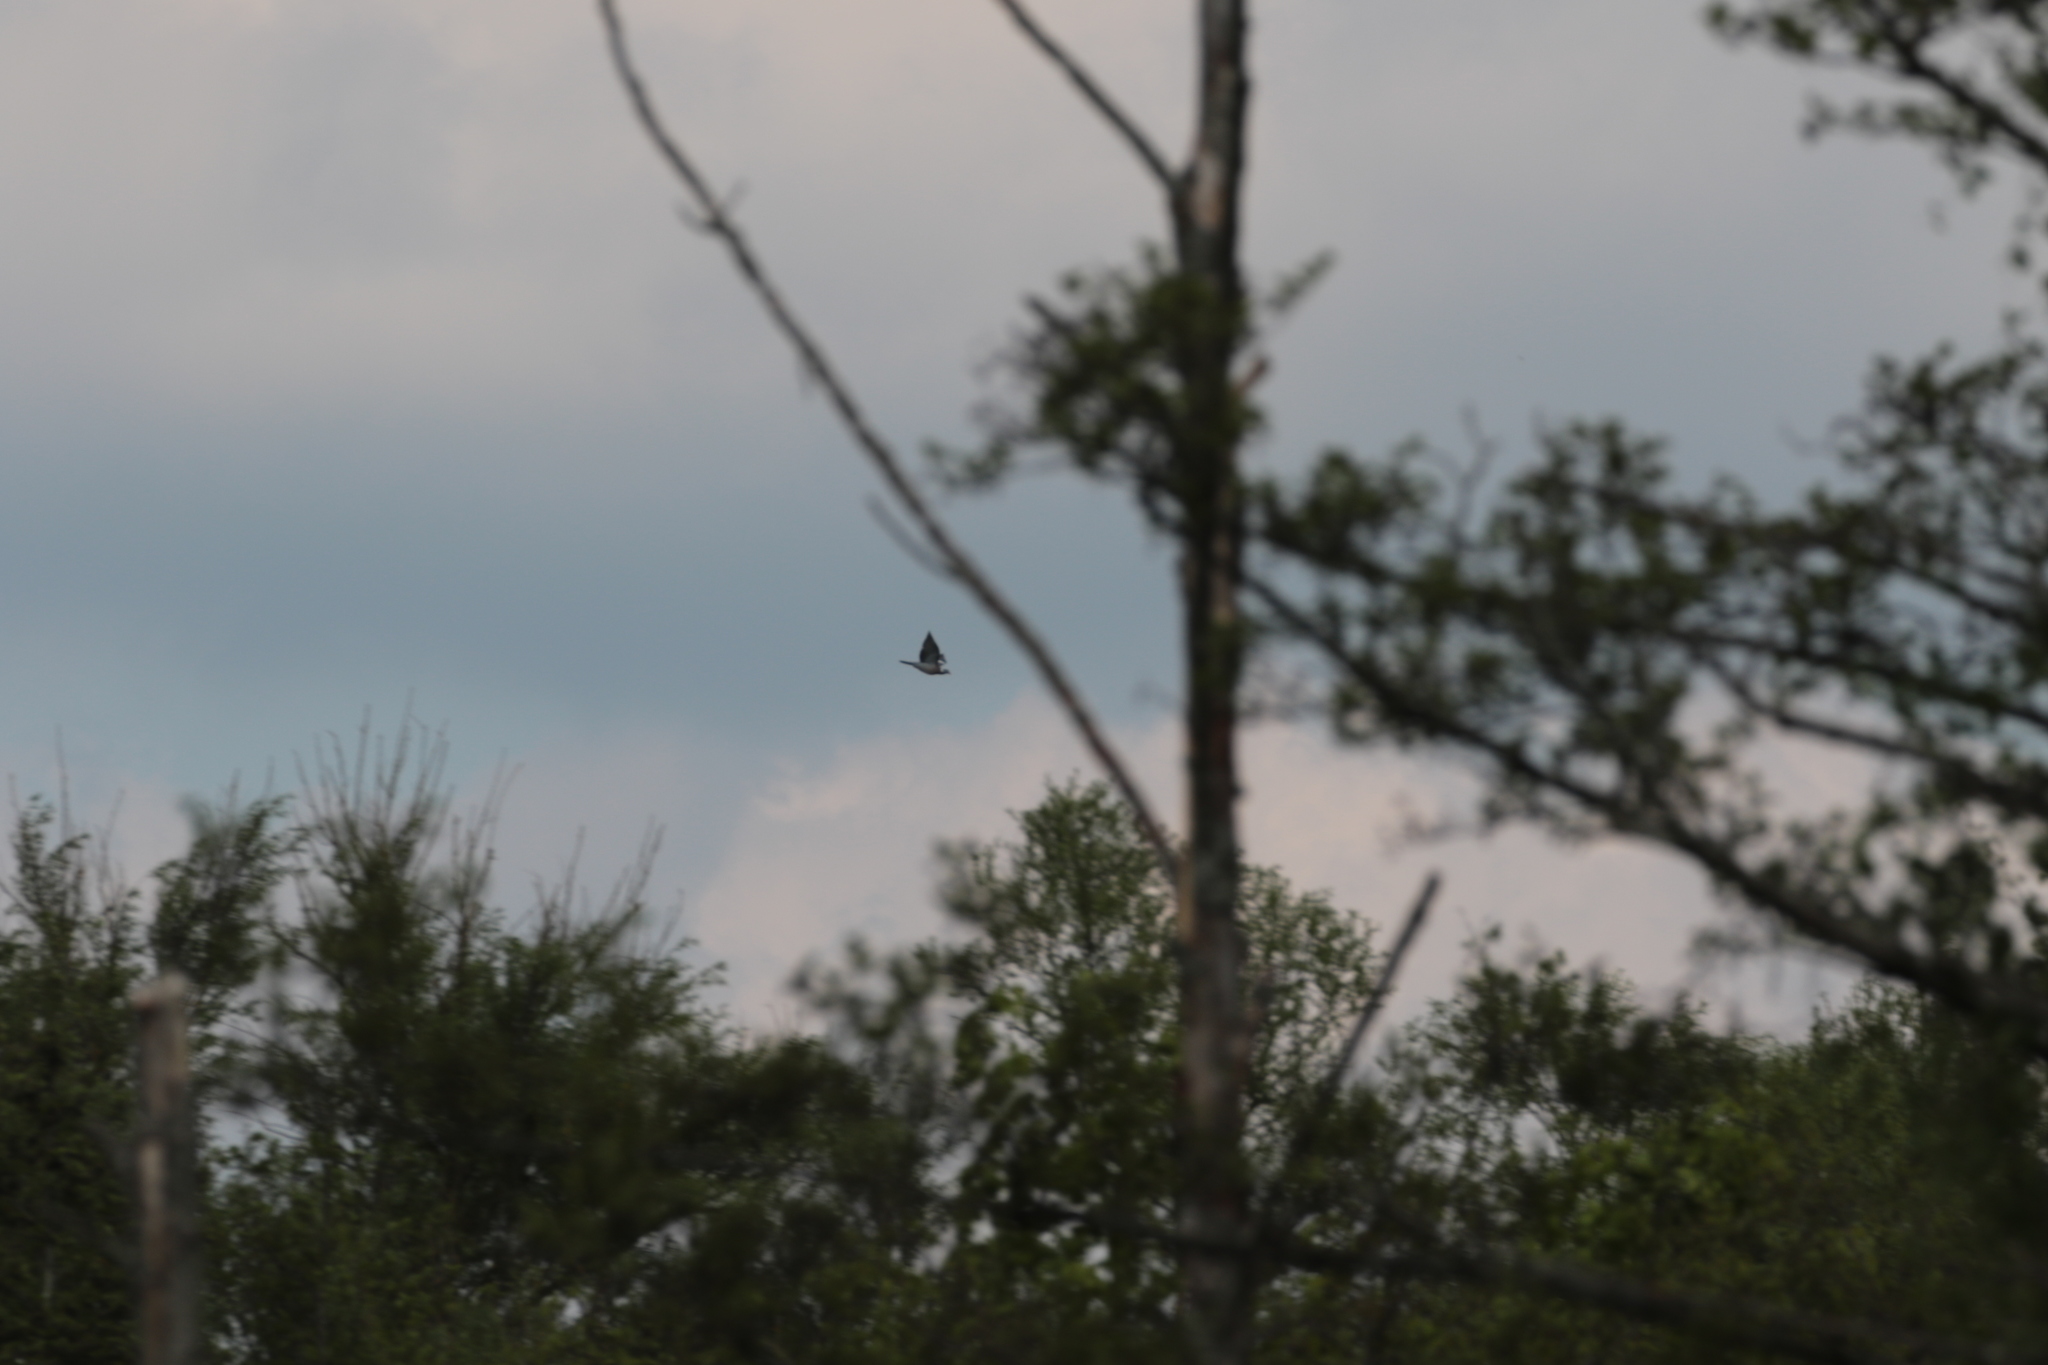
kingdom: Animalia
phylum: Chordata
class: Aves
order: Columbiformes
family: Columbidae
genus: Columba
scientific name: Columba palumbus
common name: Common wood pigeon
